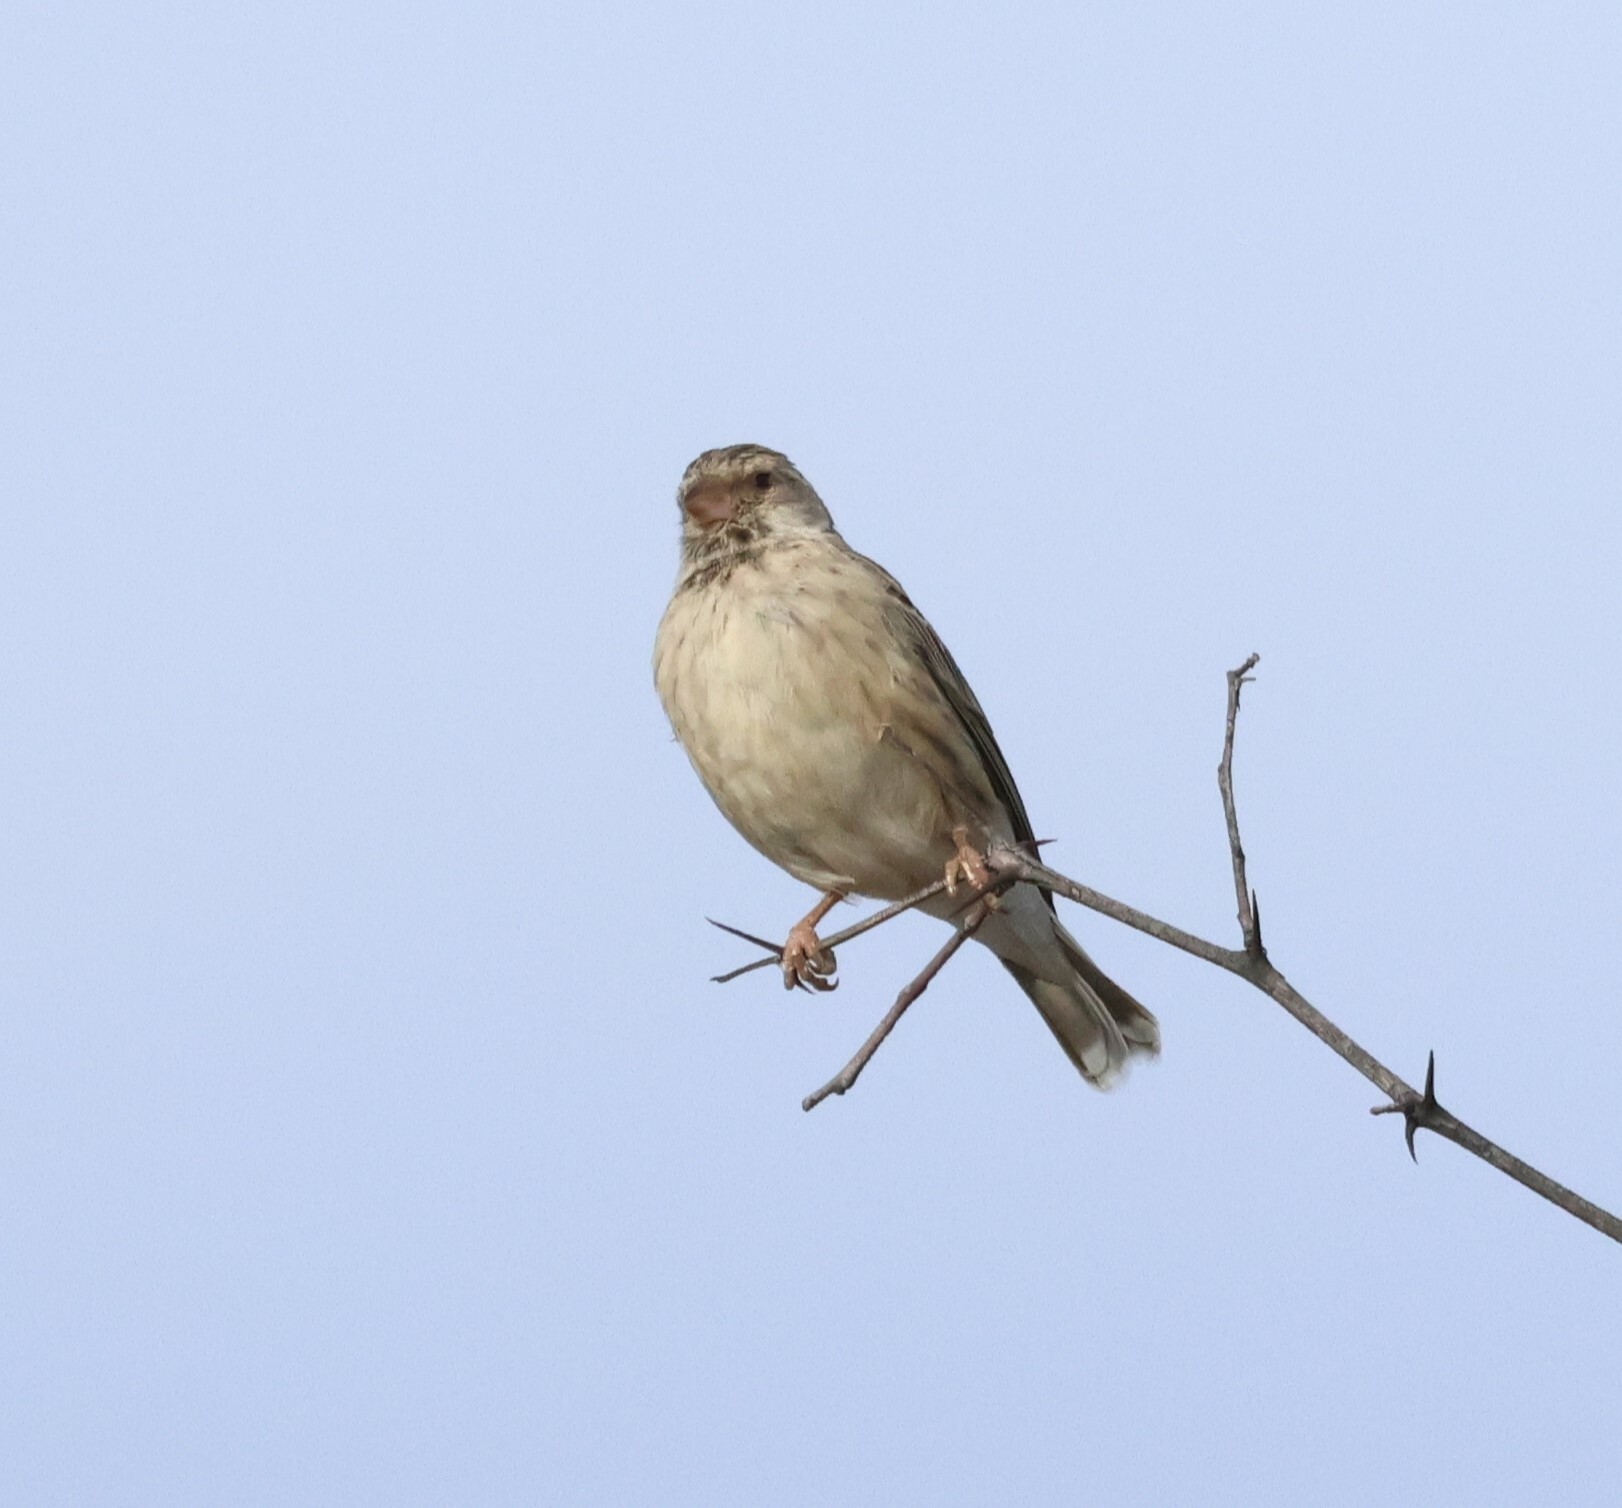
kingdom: Animalia
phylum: Chordata
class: Aves
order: Passeriformes
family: Fringillidae
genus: Crithagra
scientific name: Crithagra atrogularis
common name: Black-throated canary
